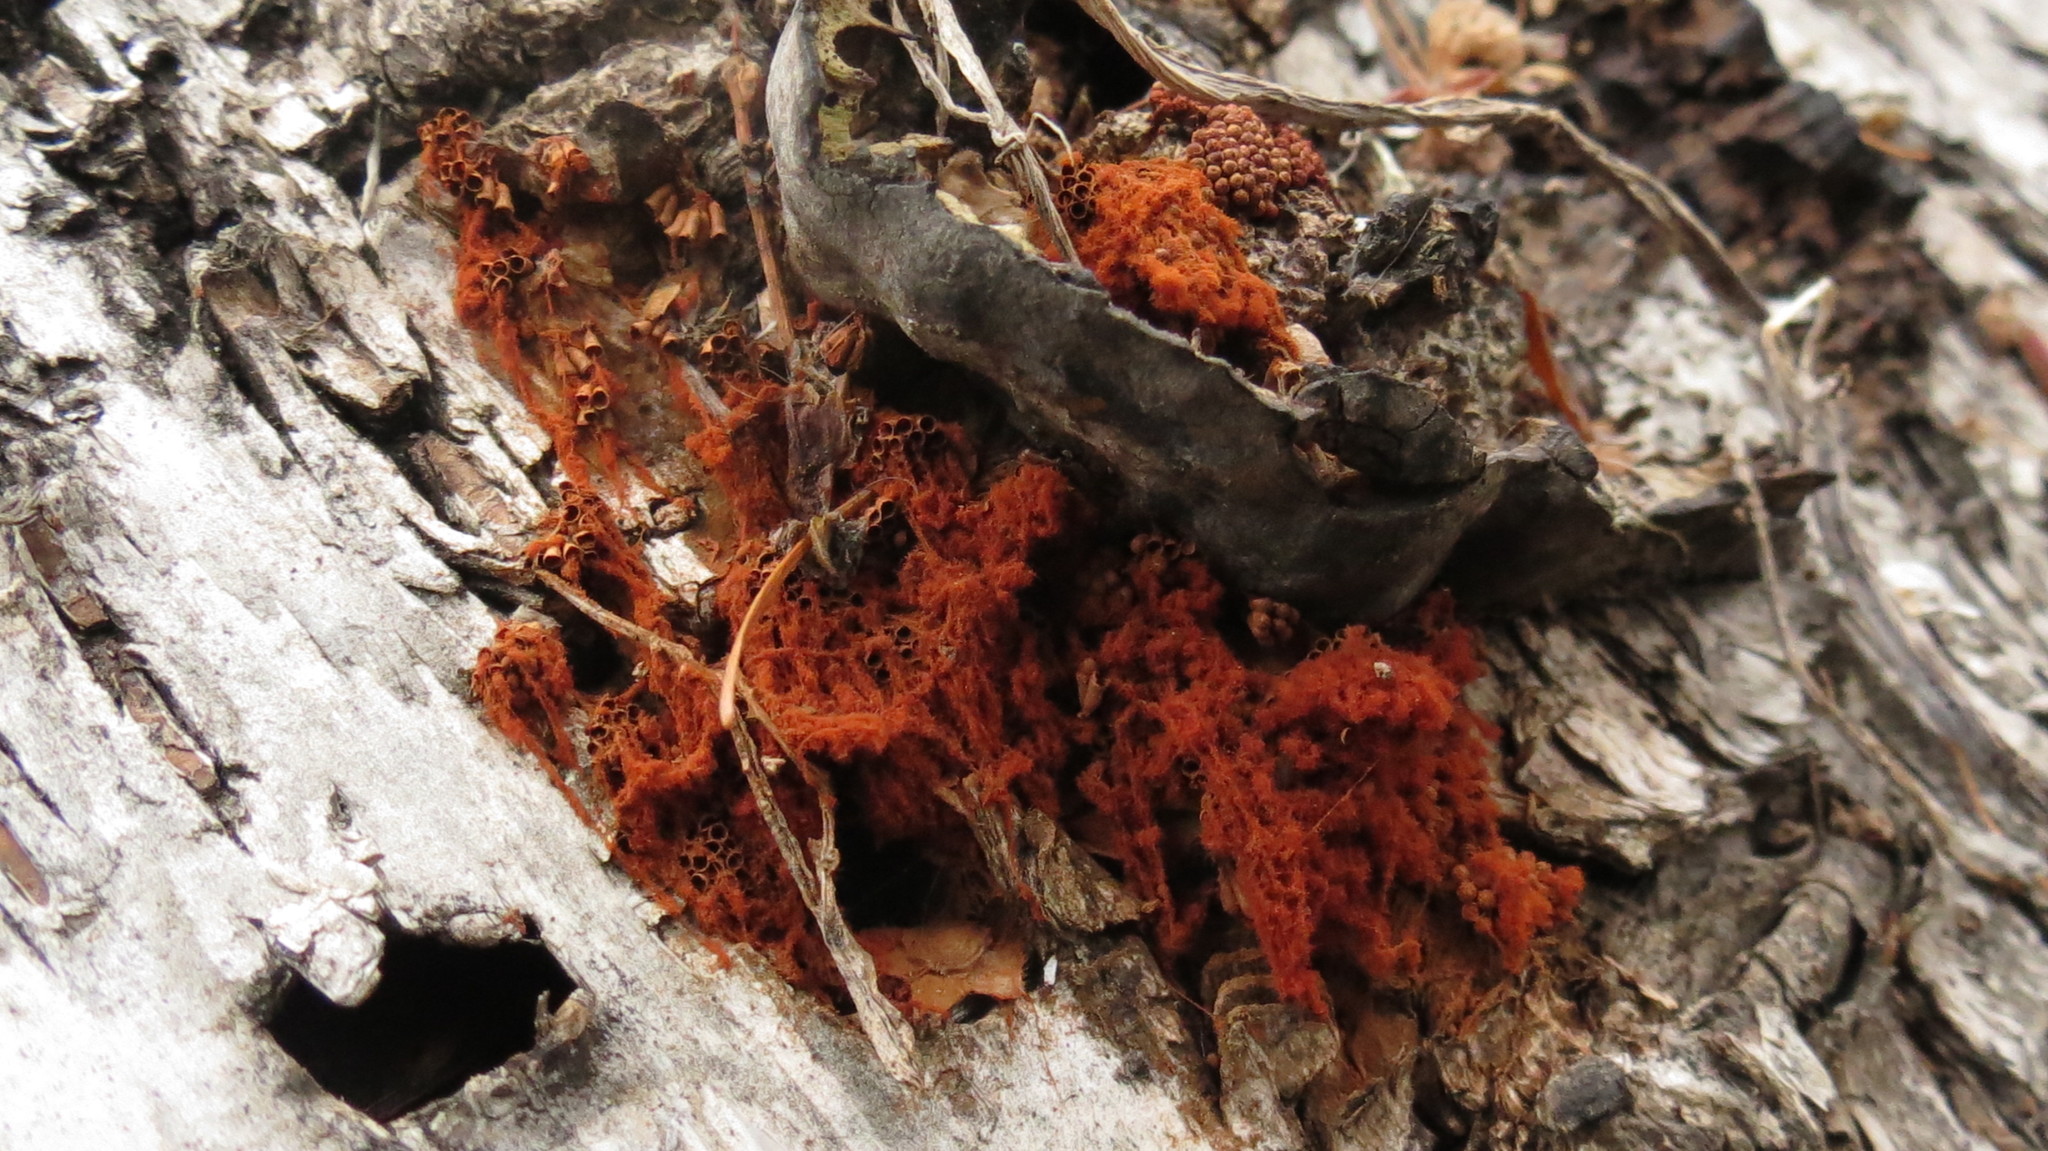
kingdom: Protozoa
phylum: Mycetozoa
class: Myxomycetes
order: Trichiales
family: Trichiaceae
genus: Metatrichia
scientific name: Metatrichia vesparia
